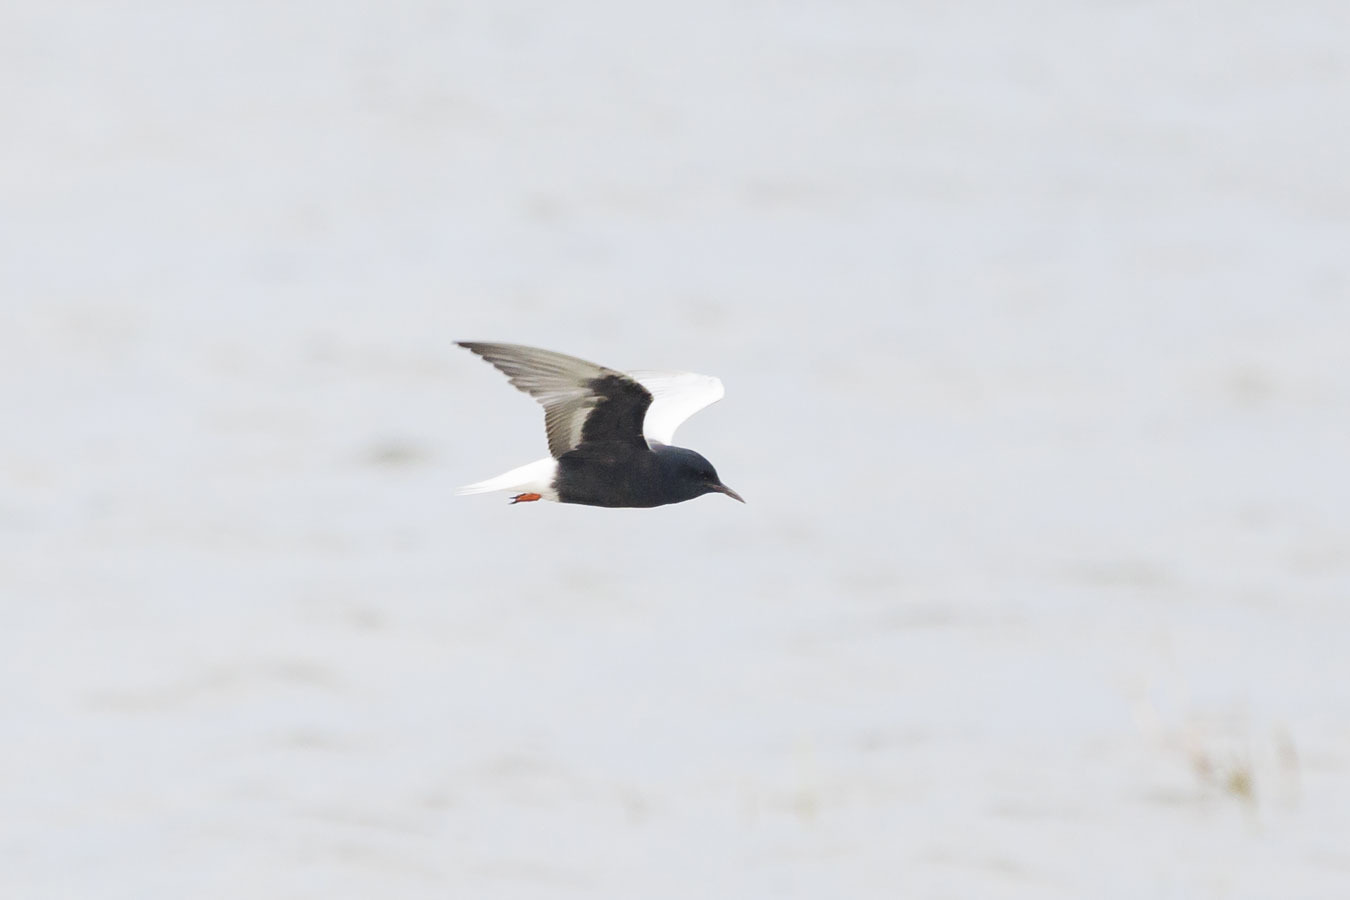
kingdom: Animalia
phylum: Chordata
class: Aves
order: Charadriiformes
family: Laridae
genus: Chlidonias
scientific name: Chlidonias leucopterus
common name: White-winged tern
